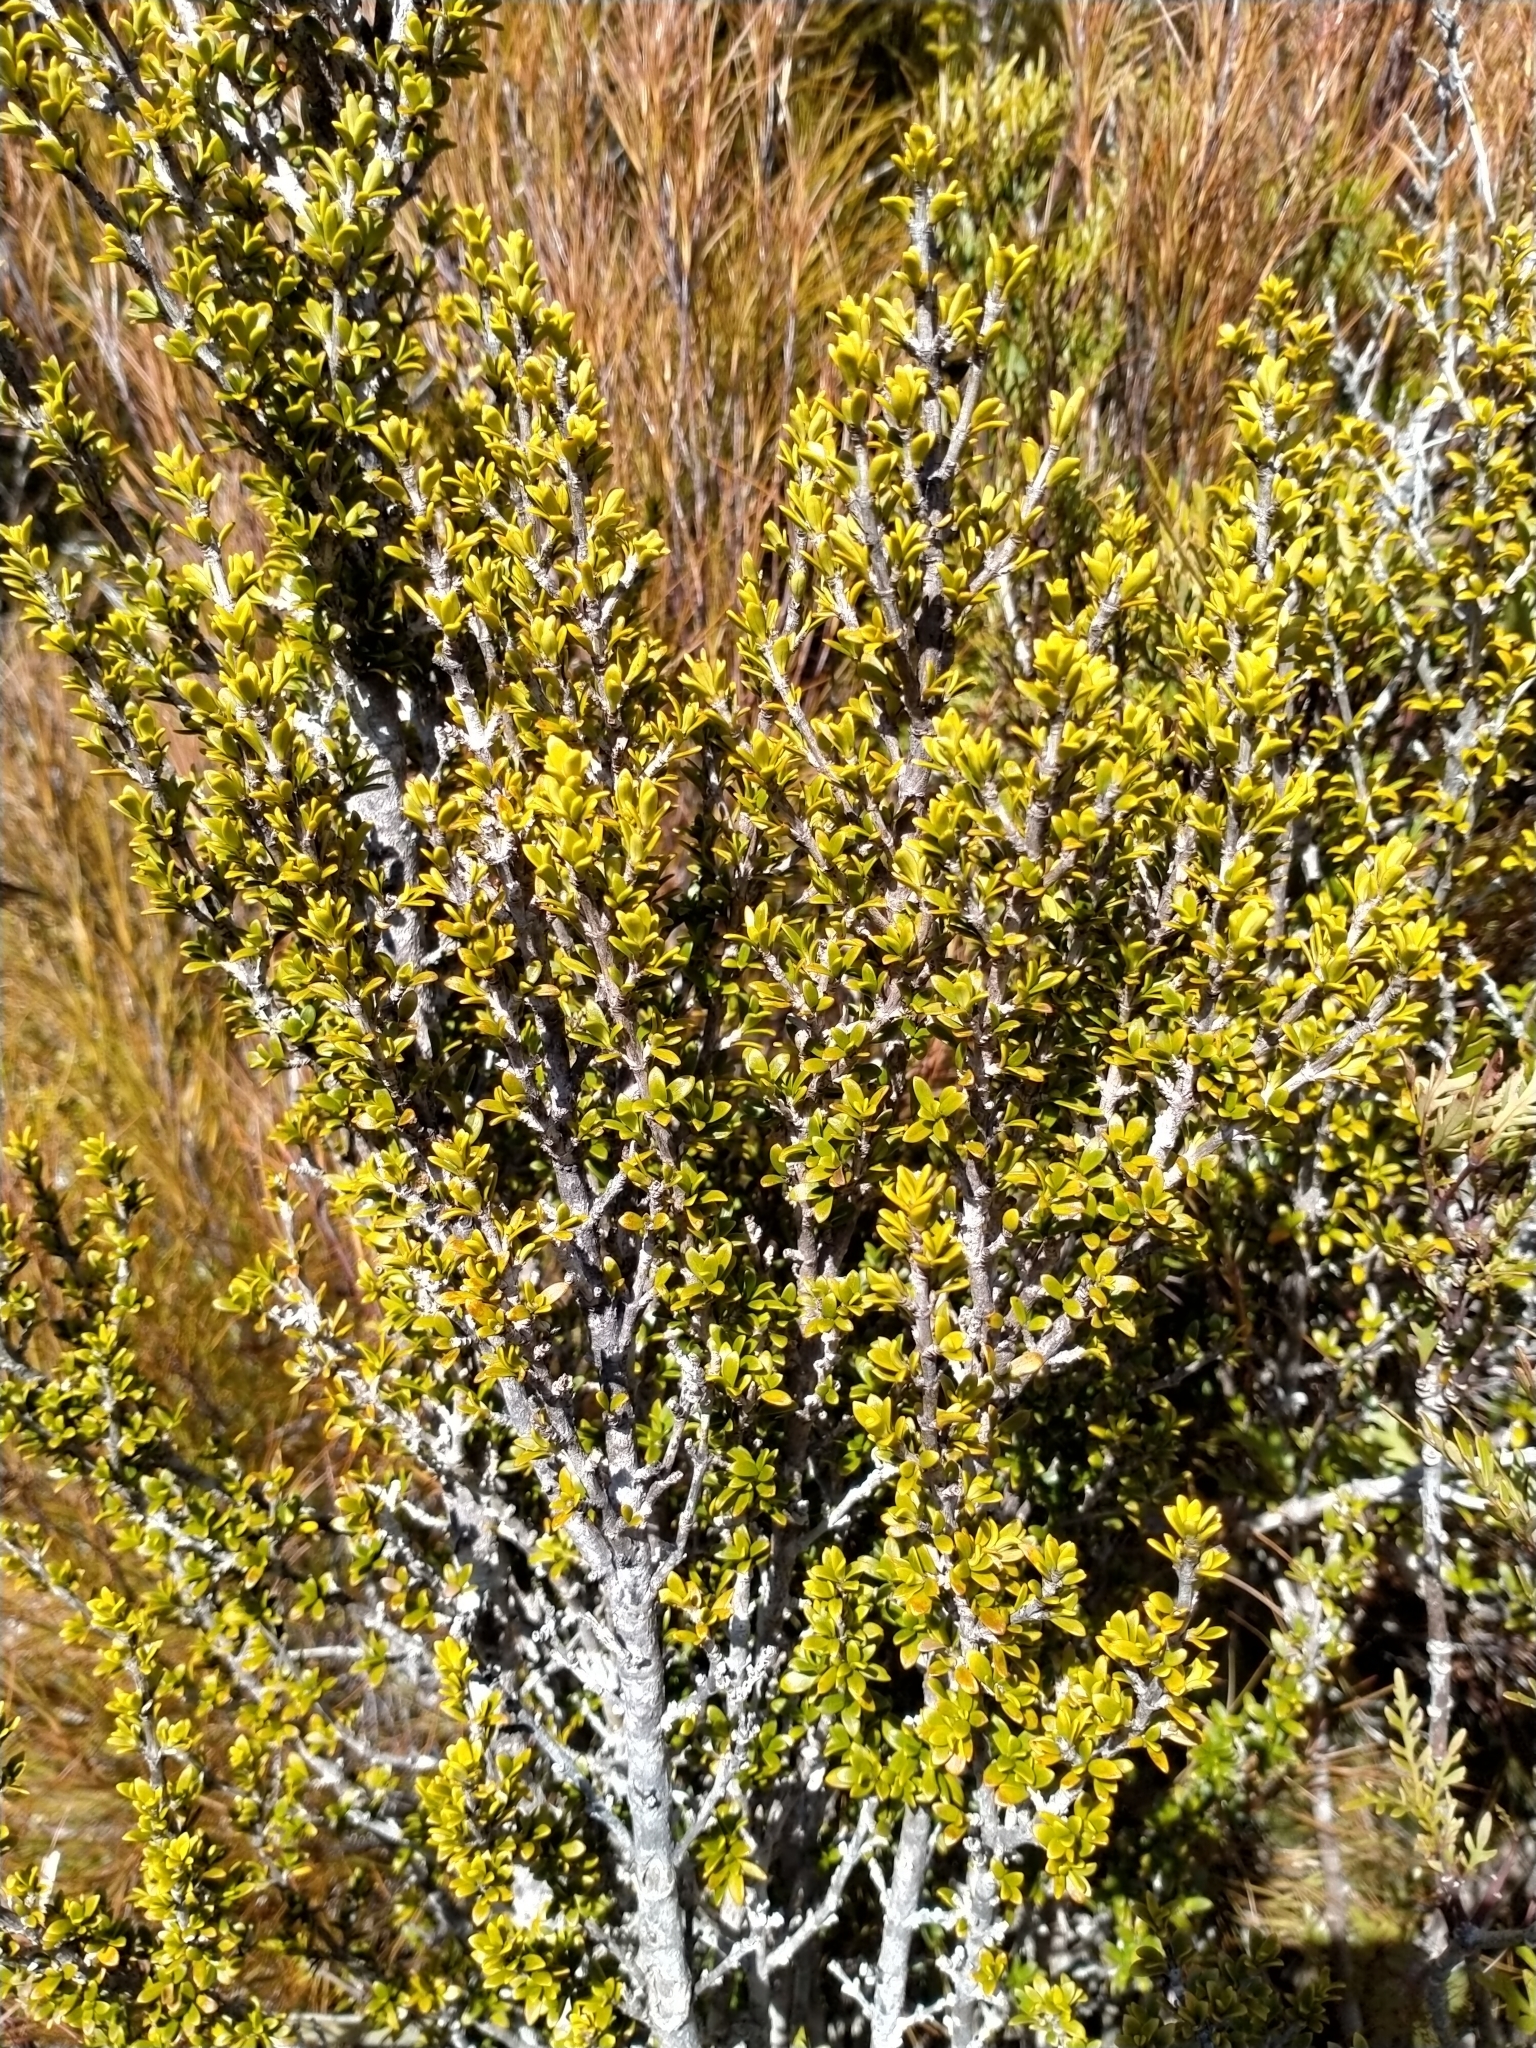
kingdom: Plantae
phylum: Tracheophyta
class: Magnoliopsida
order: Gentianales
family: Rubiaceae
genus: Coprosma
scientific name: Coprosma pseudocuneata
